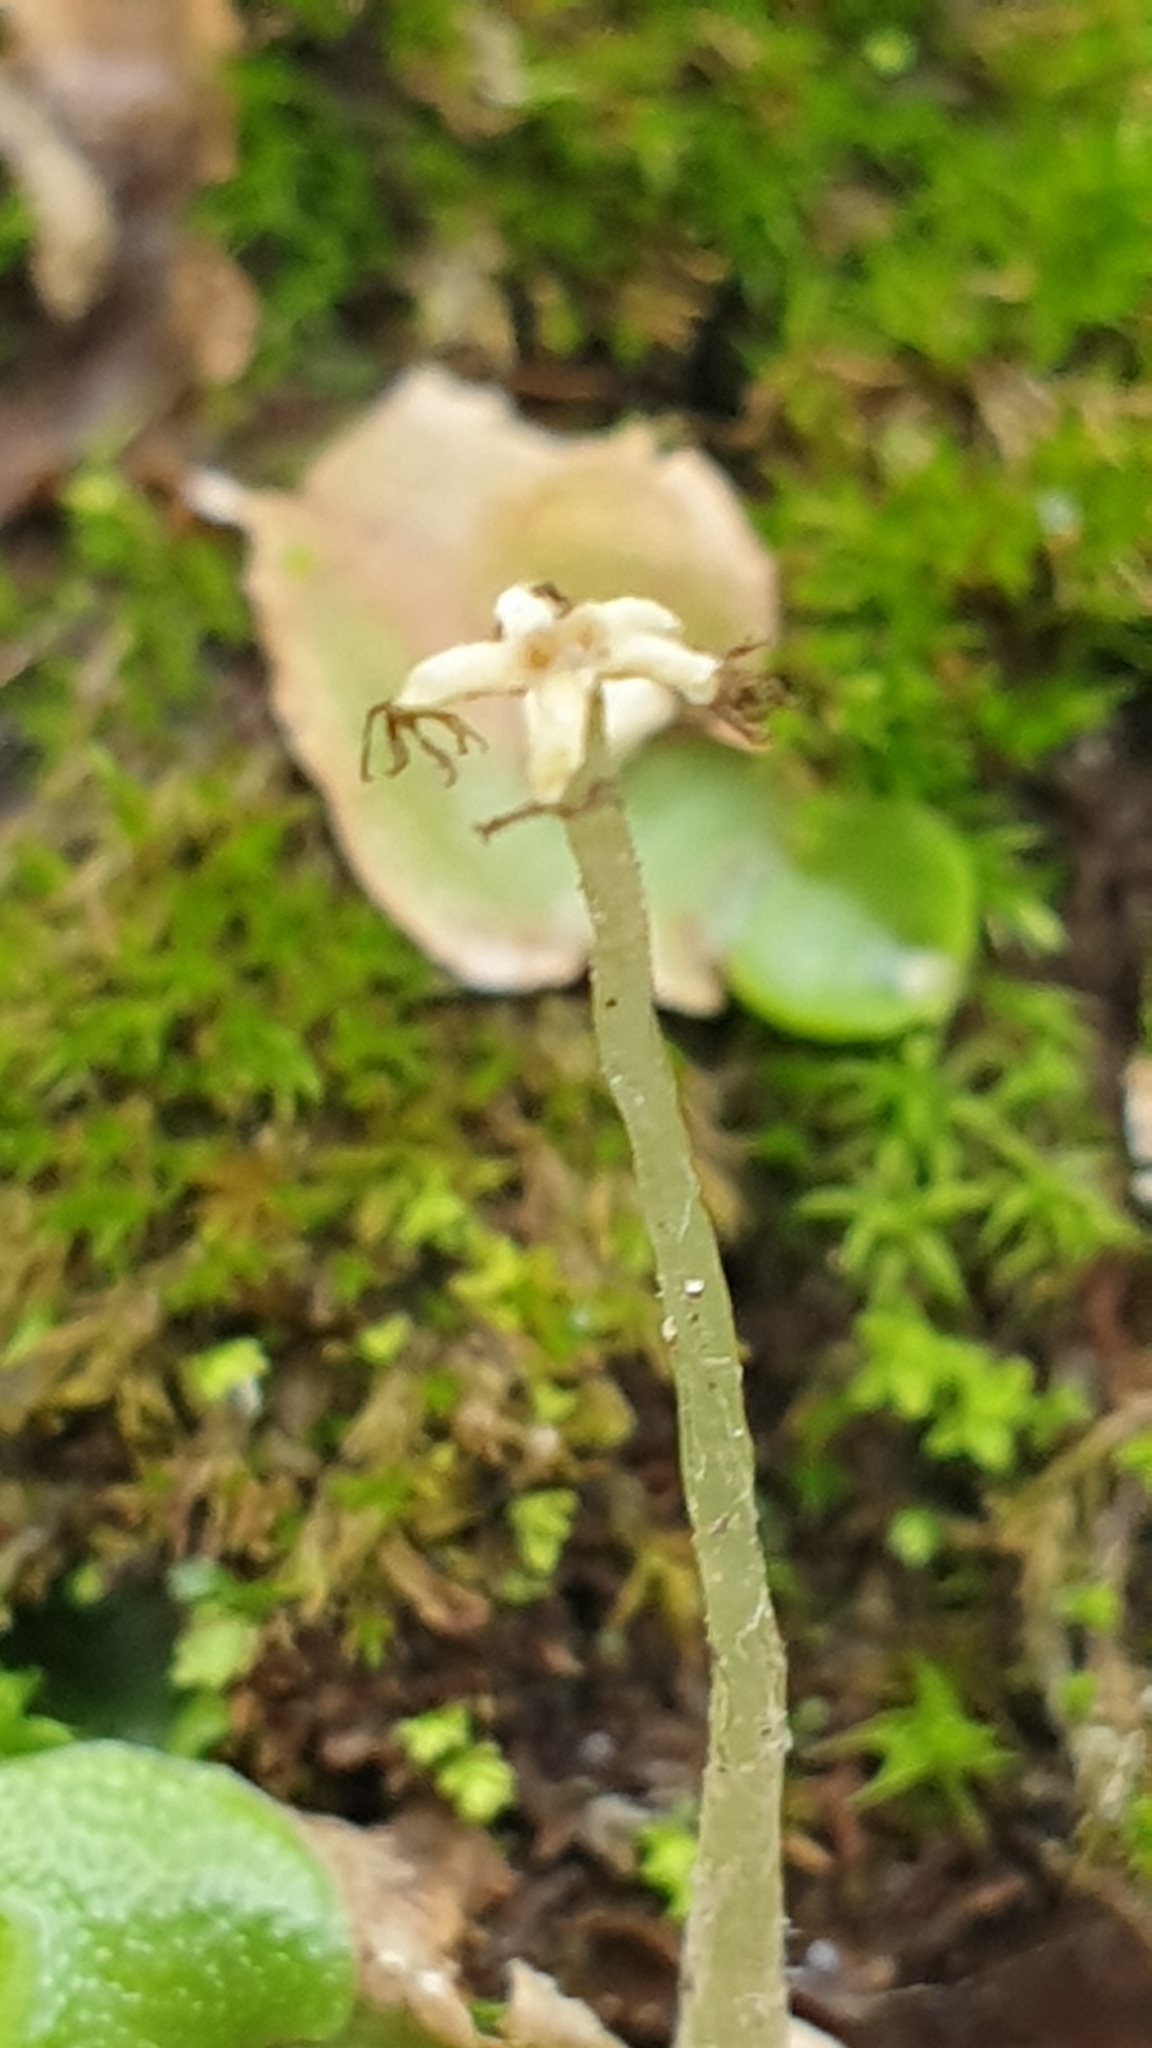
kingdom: Plantae
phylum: Marchantiophyta
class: Marchantiopsida
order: Lunulariales
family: Lunulariaceae
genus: Lunularia
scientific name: Lunularia cruciata
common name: Crescent-cup liverwort
